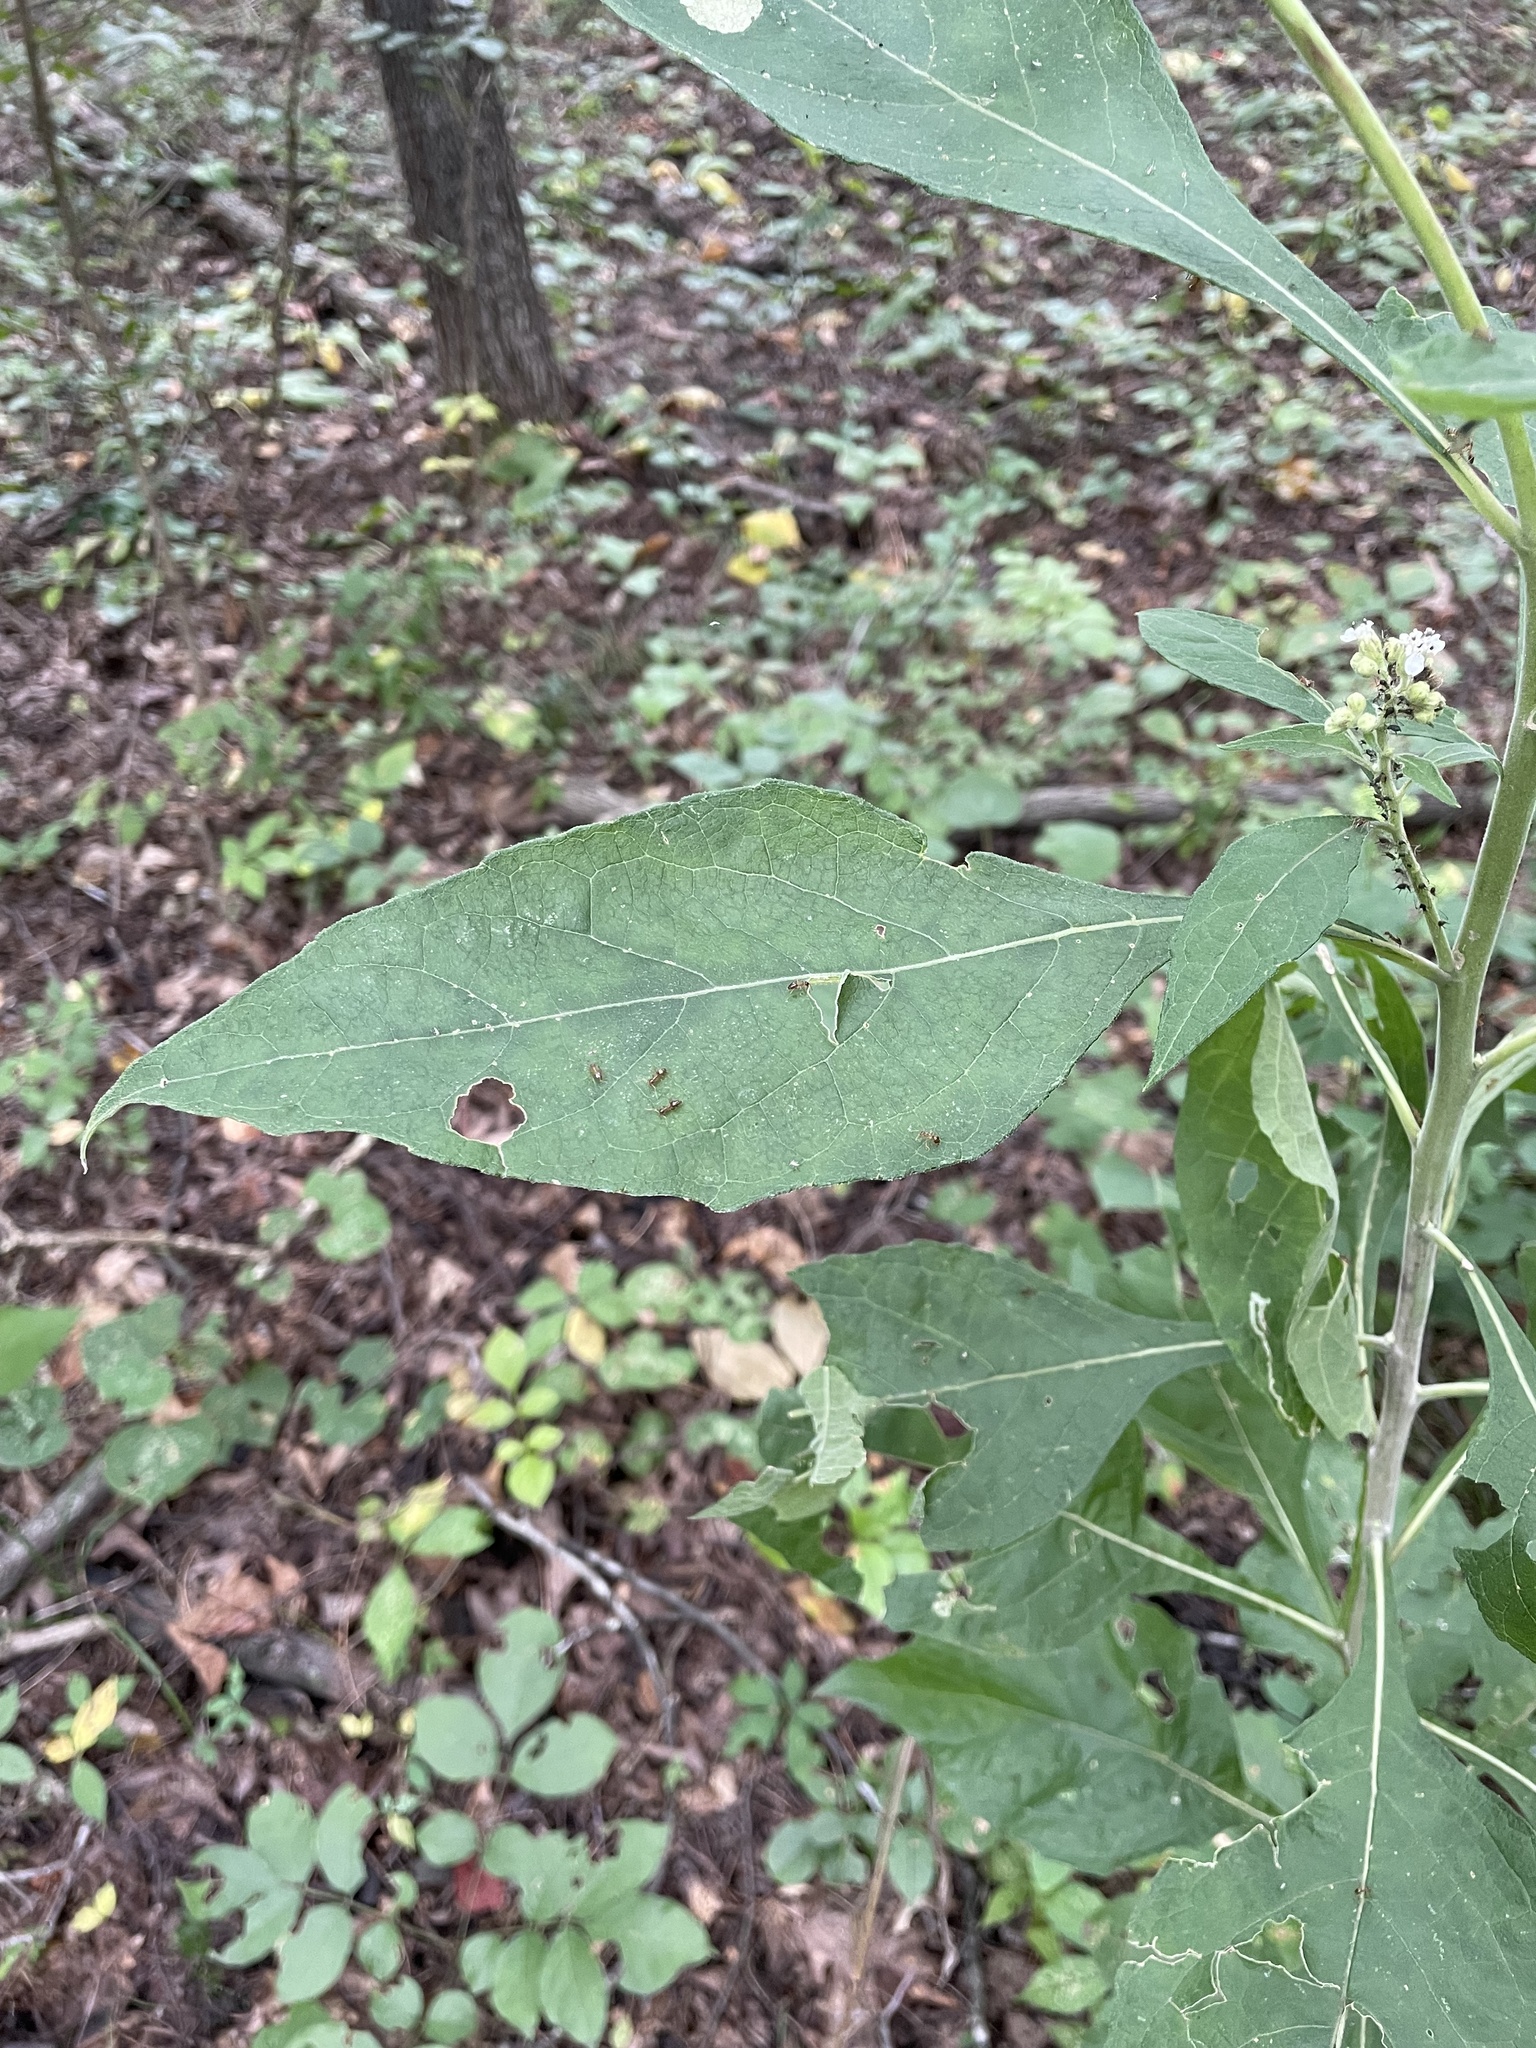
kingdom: Plantae
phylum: Tracheophyta
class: Magnoliopsida
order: Asterales
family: Asteraceae
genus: Verbesina
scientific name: Verbesina virginica
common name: Frostweed
